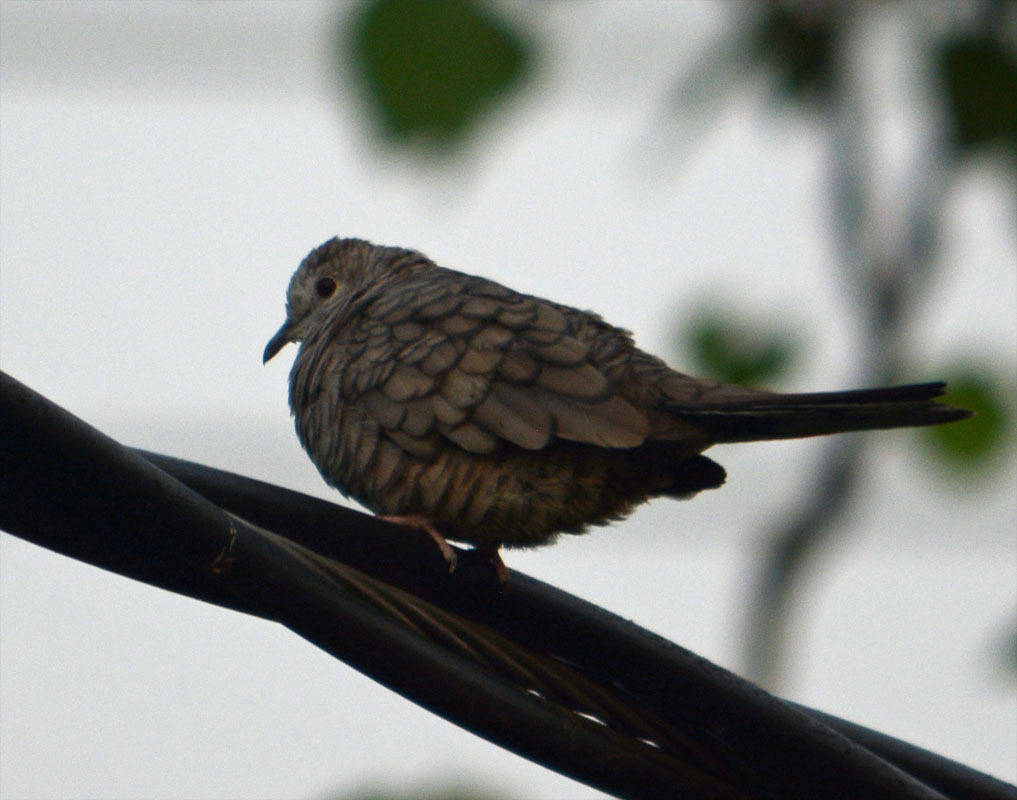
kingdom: Animalia
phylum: Chordata
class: Aves
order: Columbiformes
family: Columbidae
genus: Columbina
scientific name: Columbina inca
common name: Inca dove
